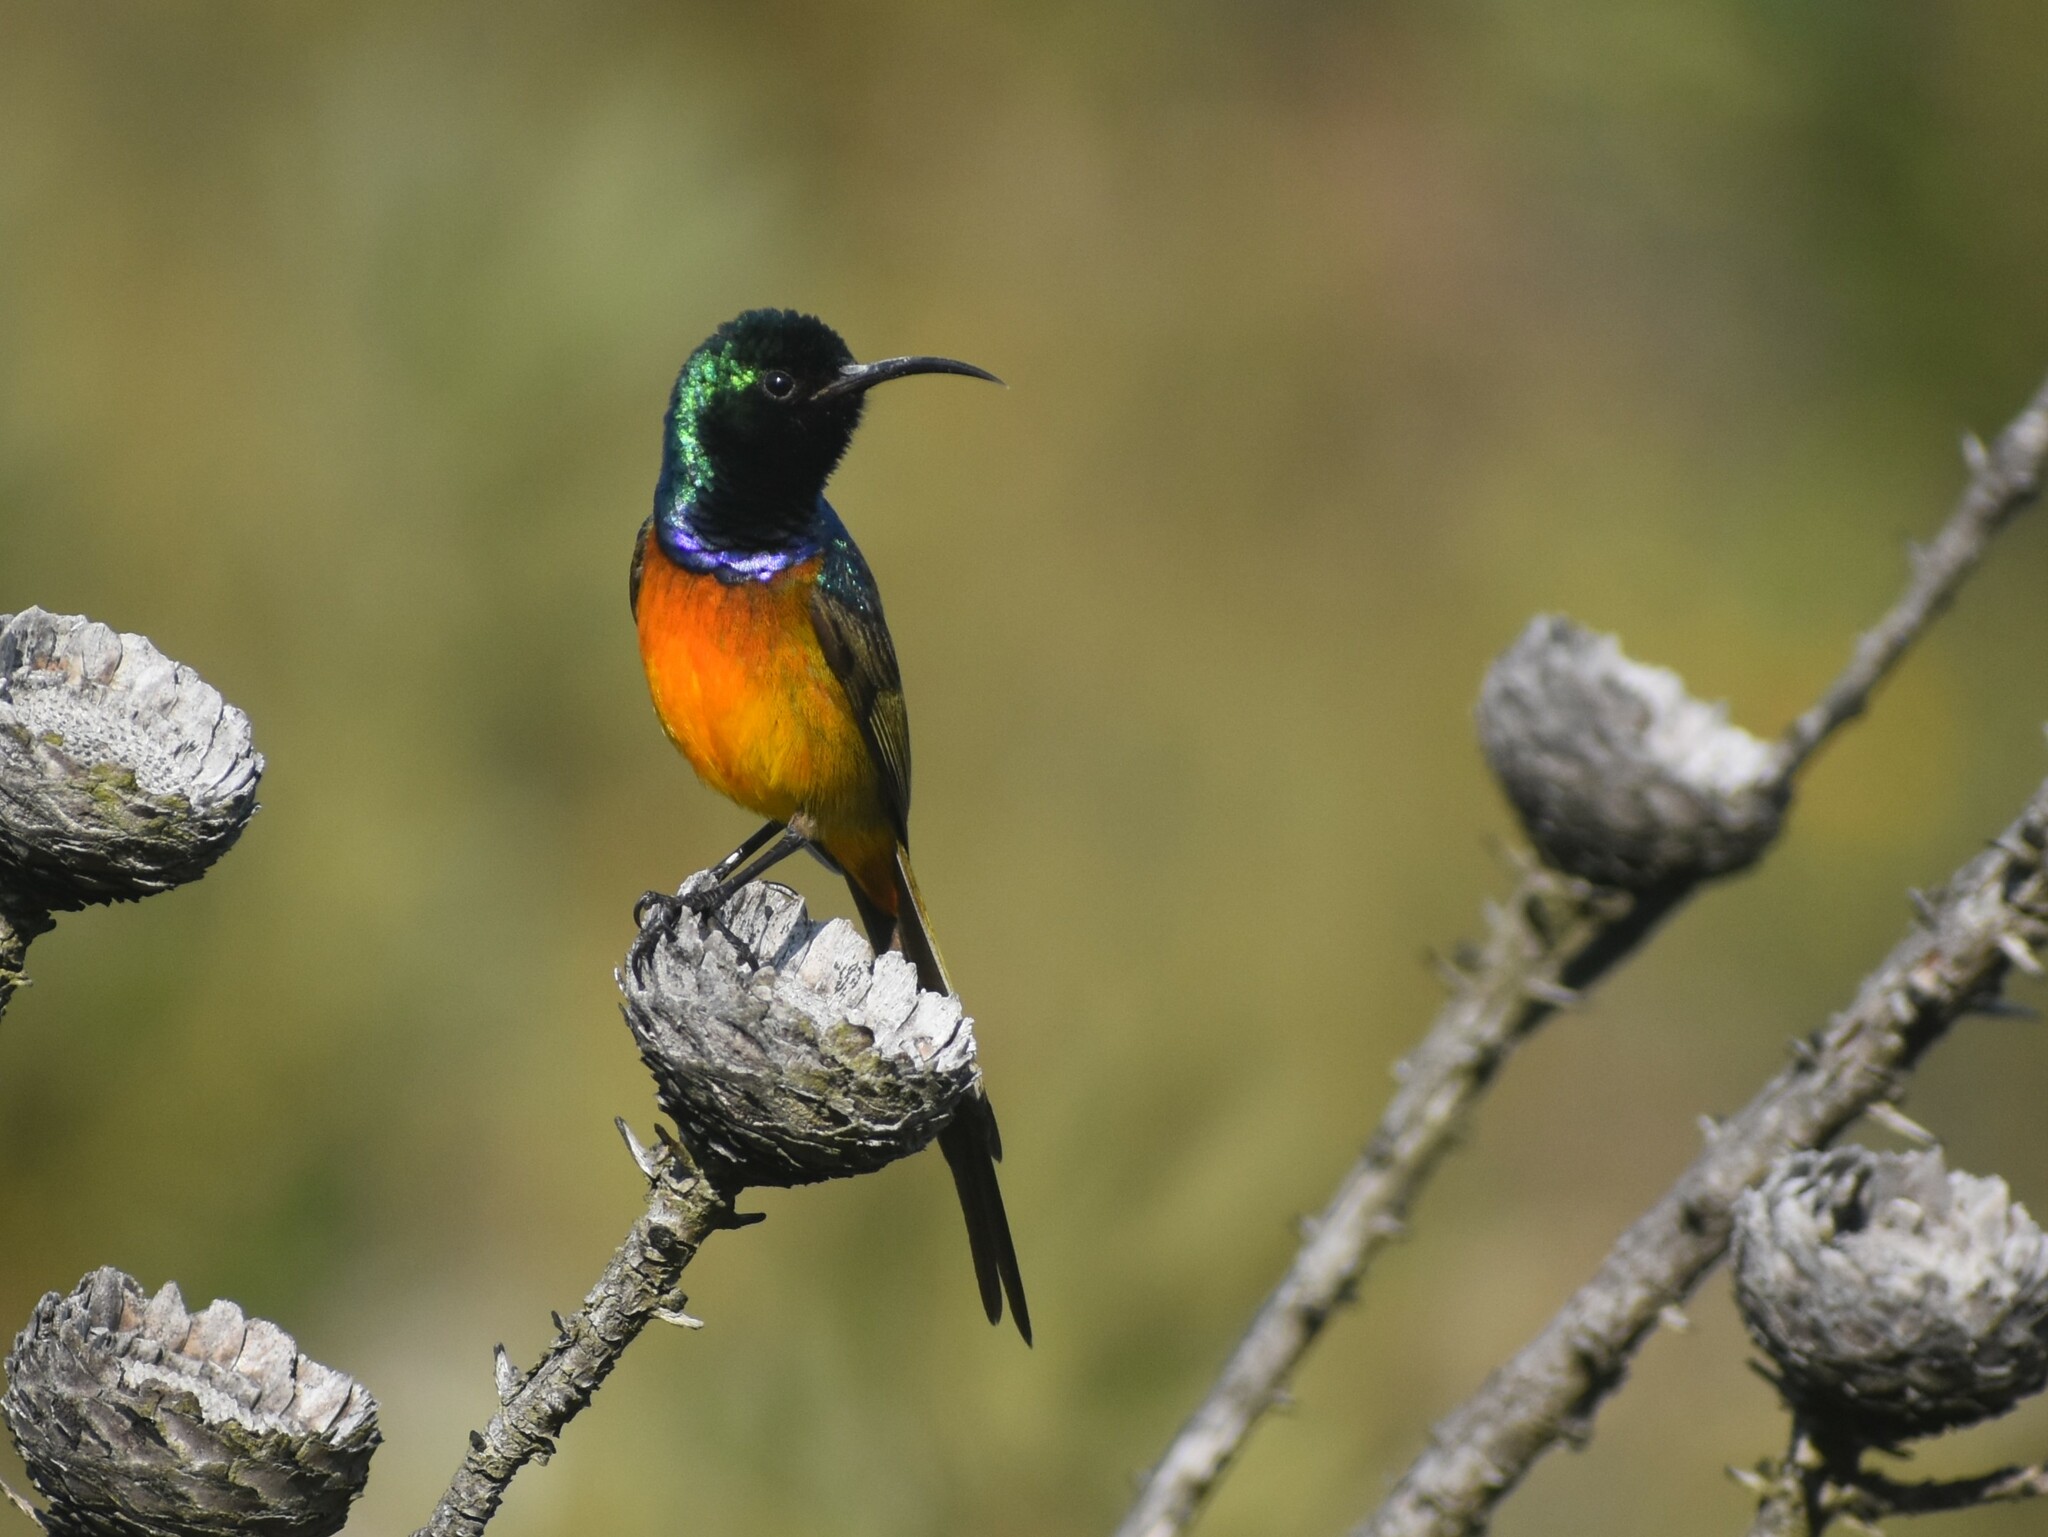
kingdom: Animalia
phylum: Chordata
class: Aves
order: Passeriformes
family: Nectariniidae
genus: Anthobaphes
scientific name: Anthobaphes violacea
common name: Orange-breasted sunbird
